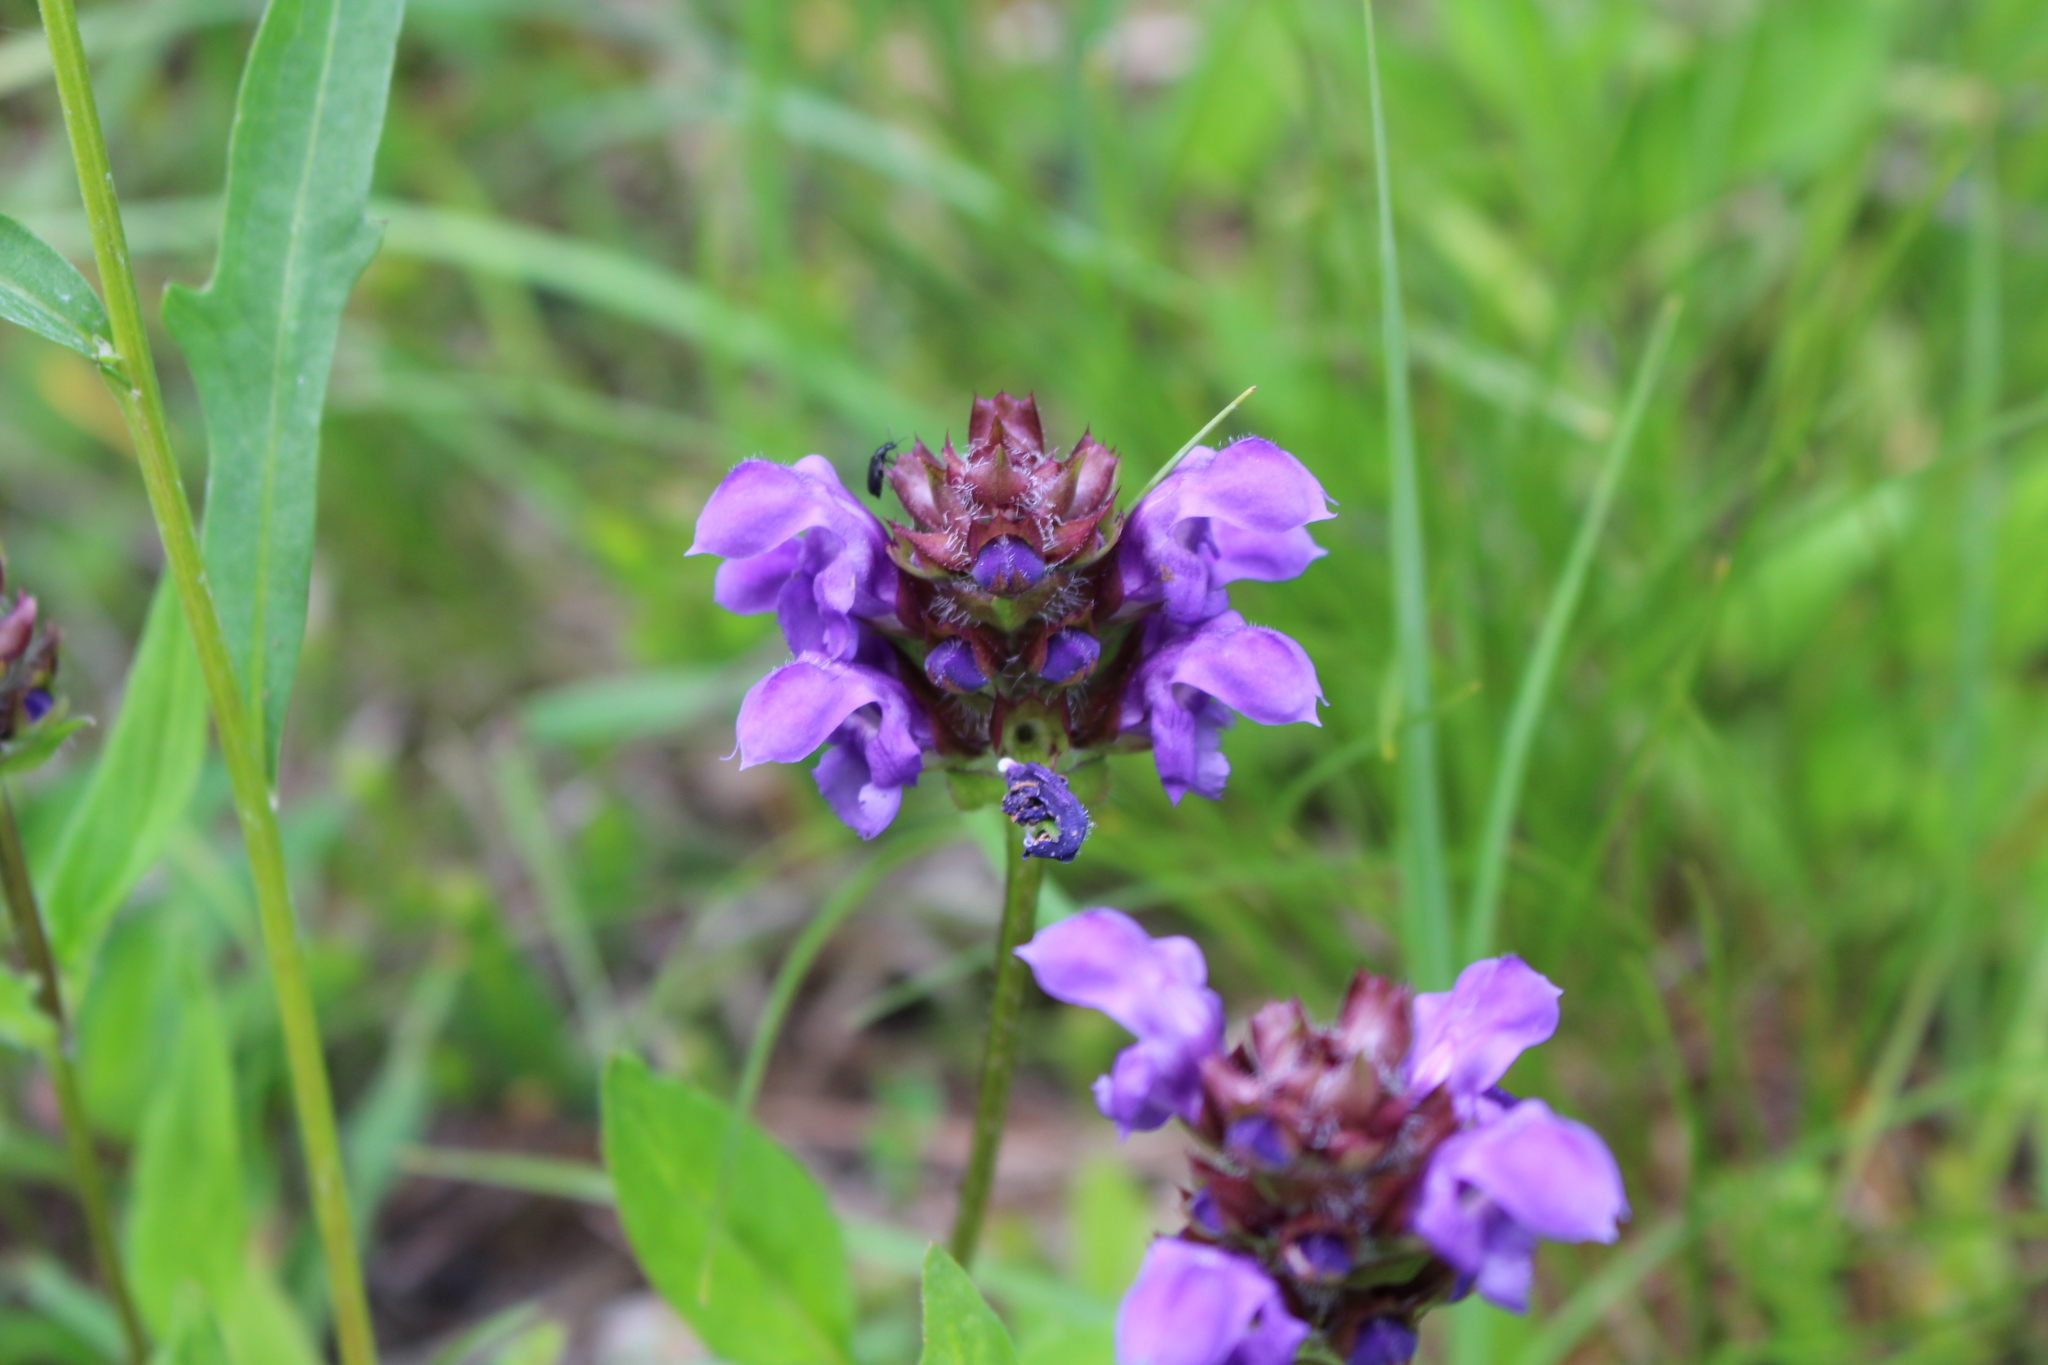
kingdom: Plantae
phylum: Tracheophyta
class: Magnoliopsida
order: Lamiales
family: Lamiaceae
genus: Prunella
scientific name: Prunella vulgaris
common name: Heal-all
